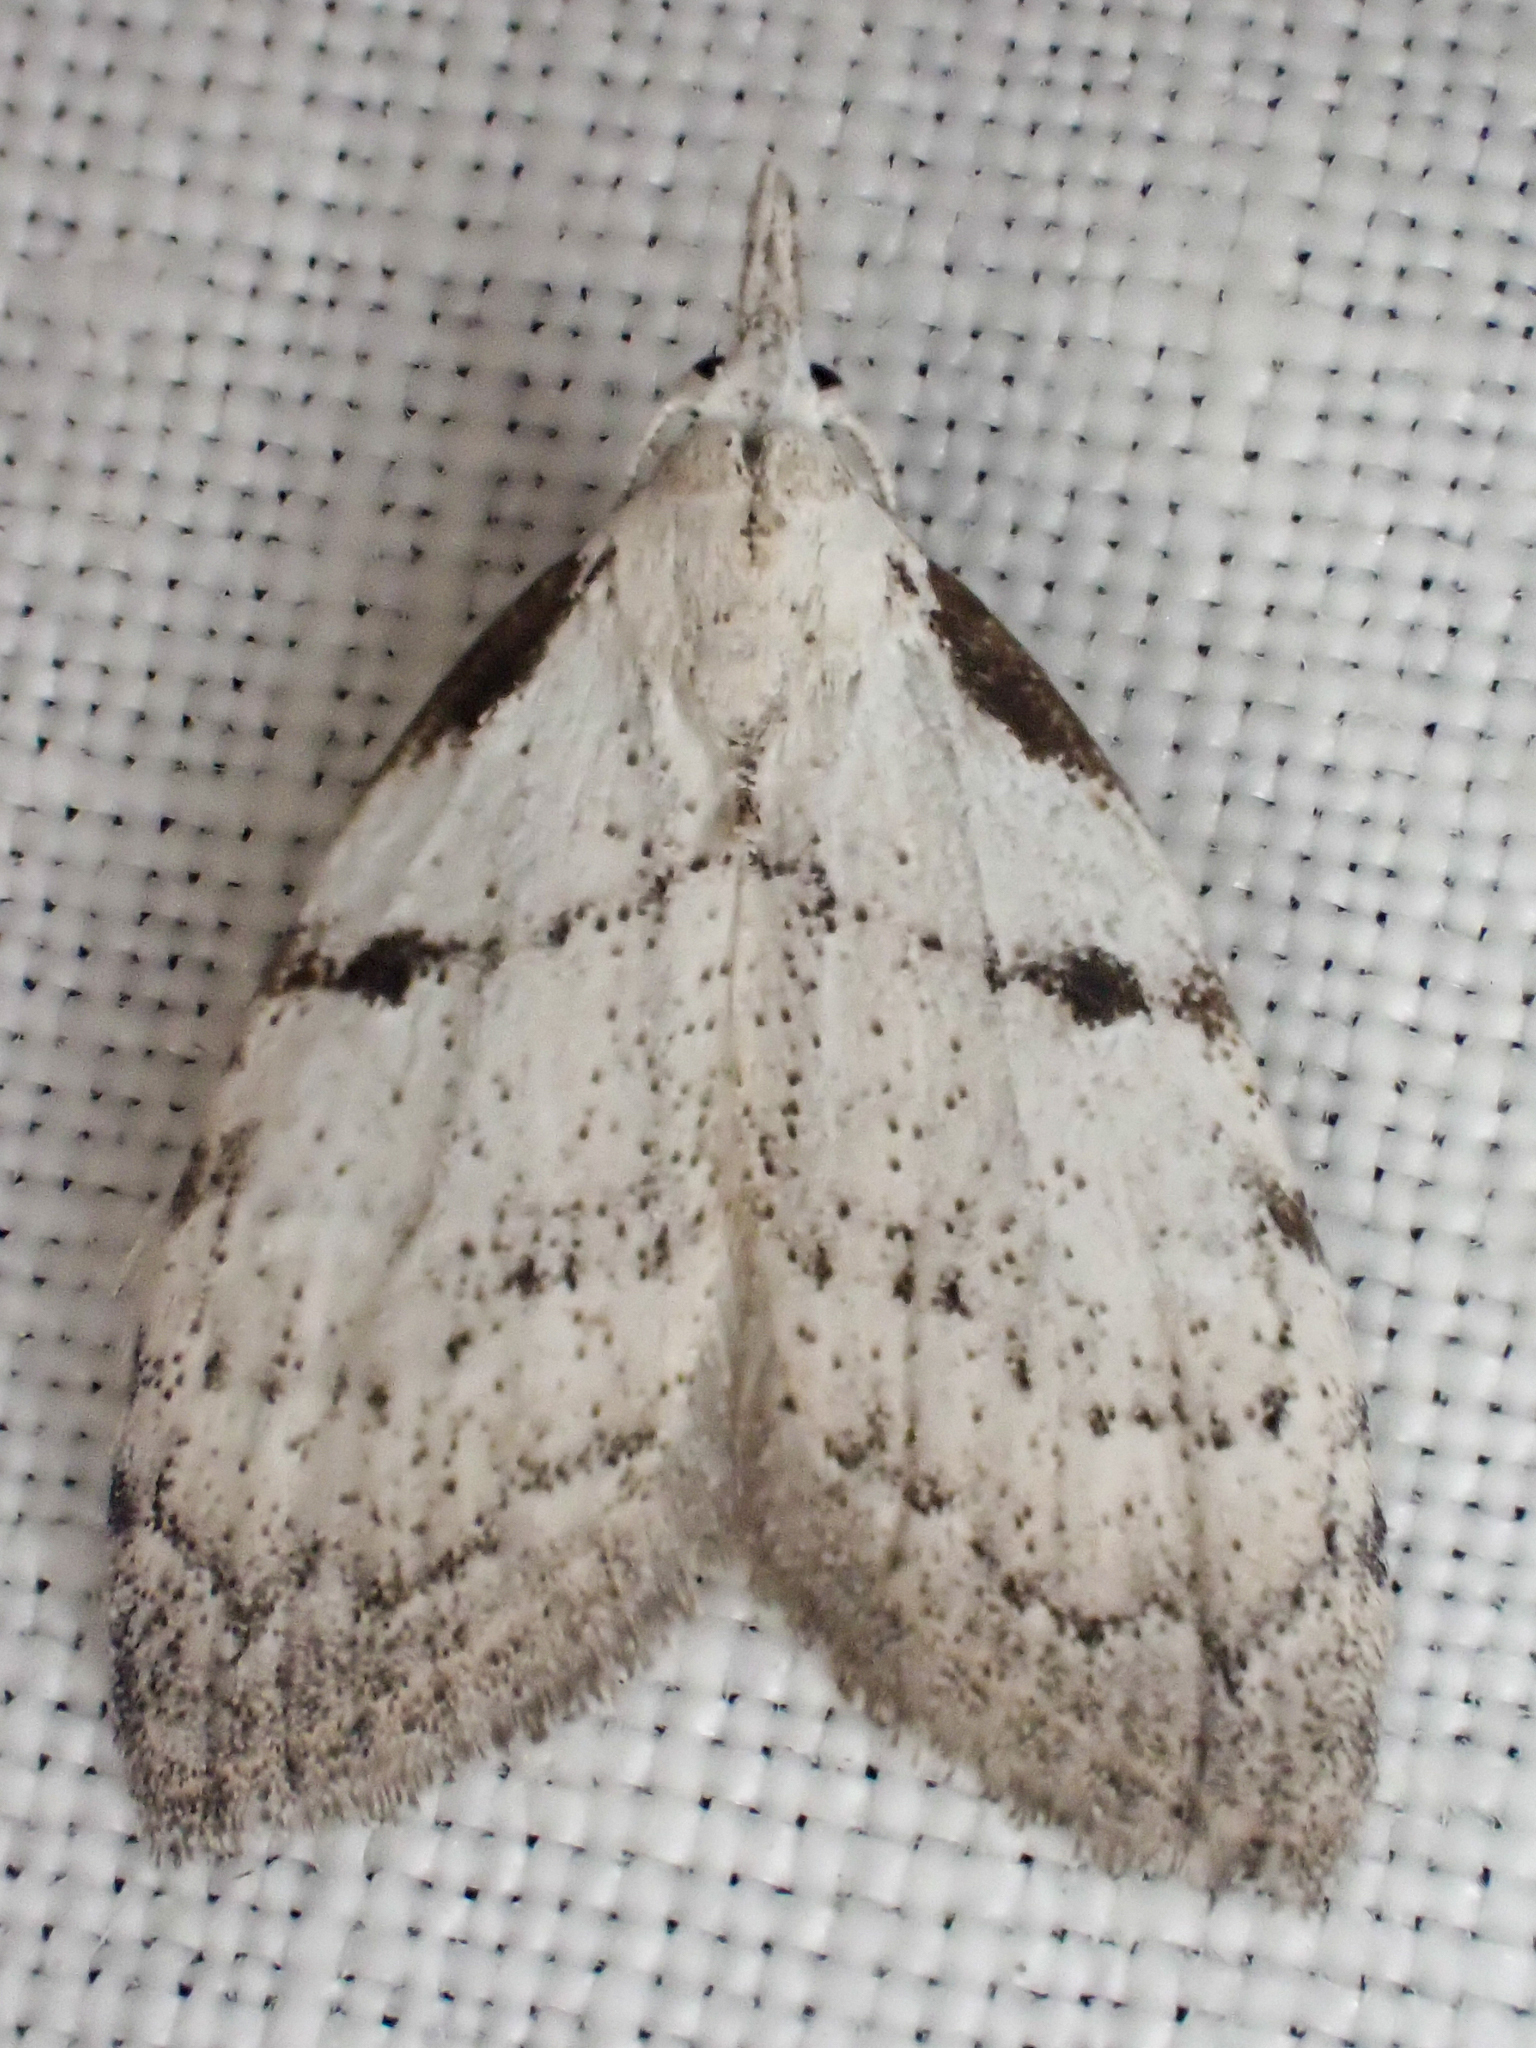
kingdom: Animalia
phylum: Arthropoda
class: Insecta
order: Lepidoptera
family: Nolidae
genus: Nola
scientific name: Nola minna
